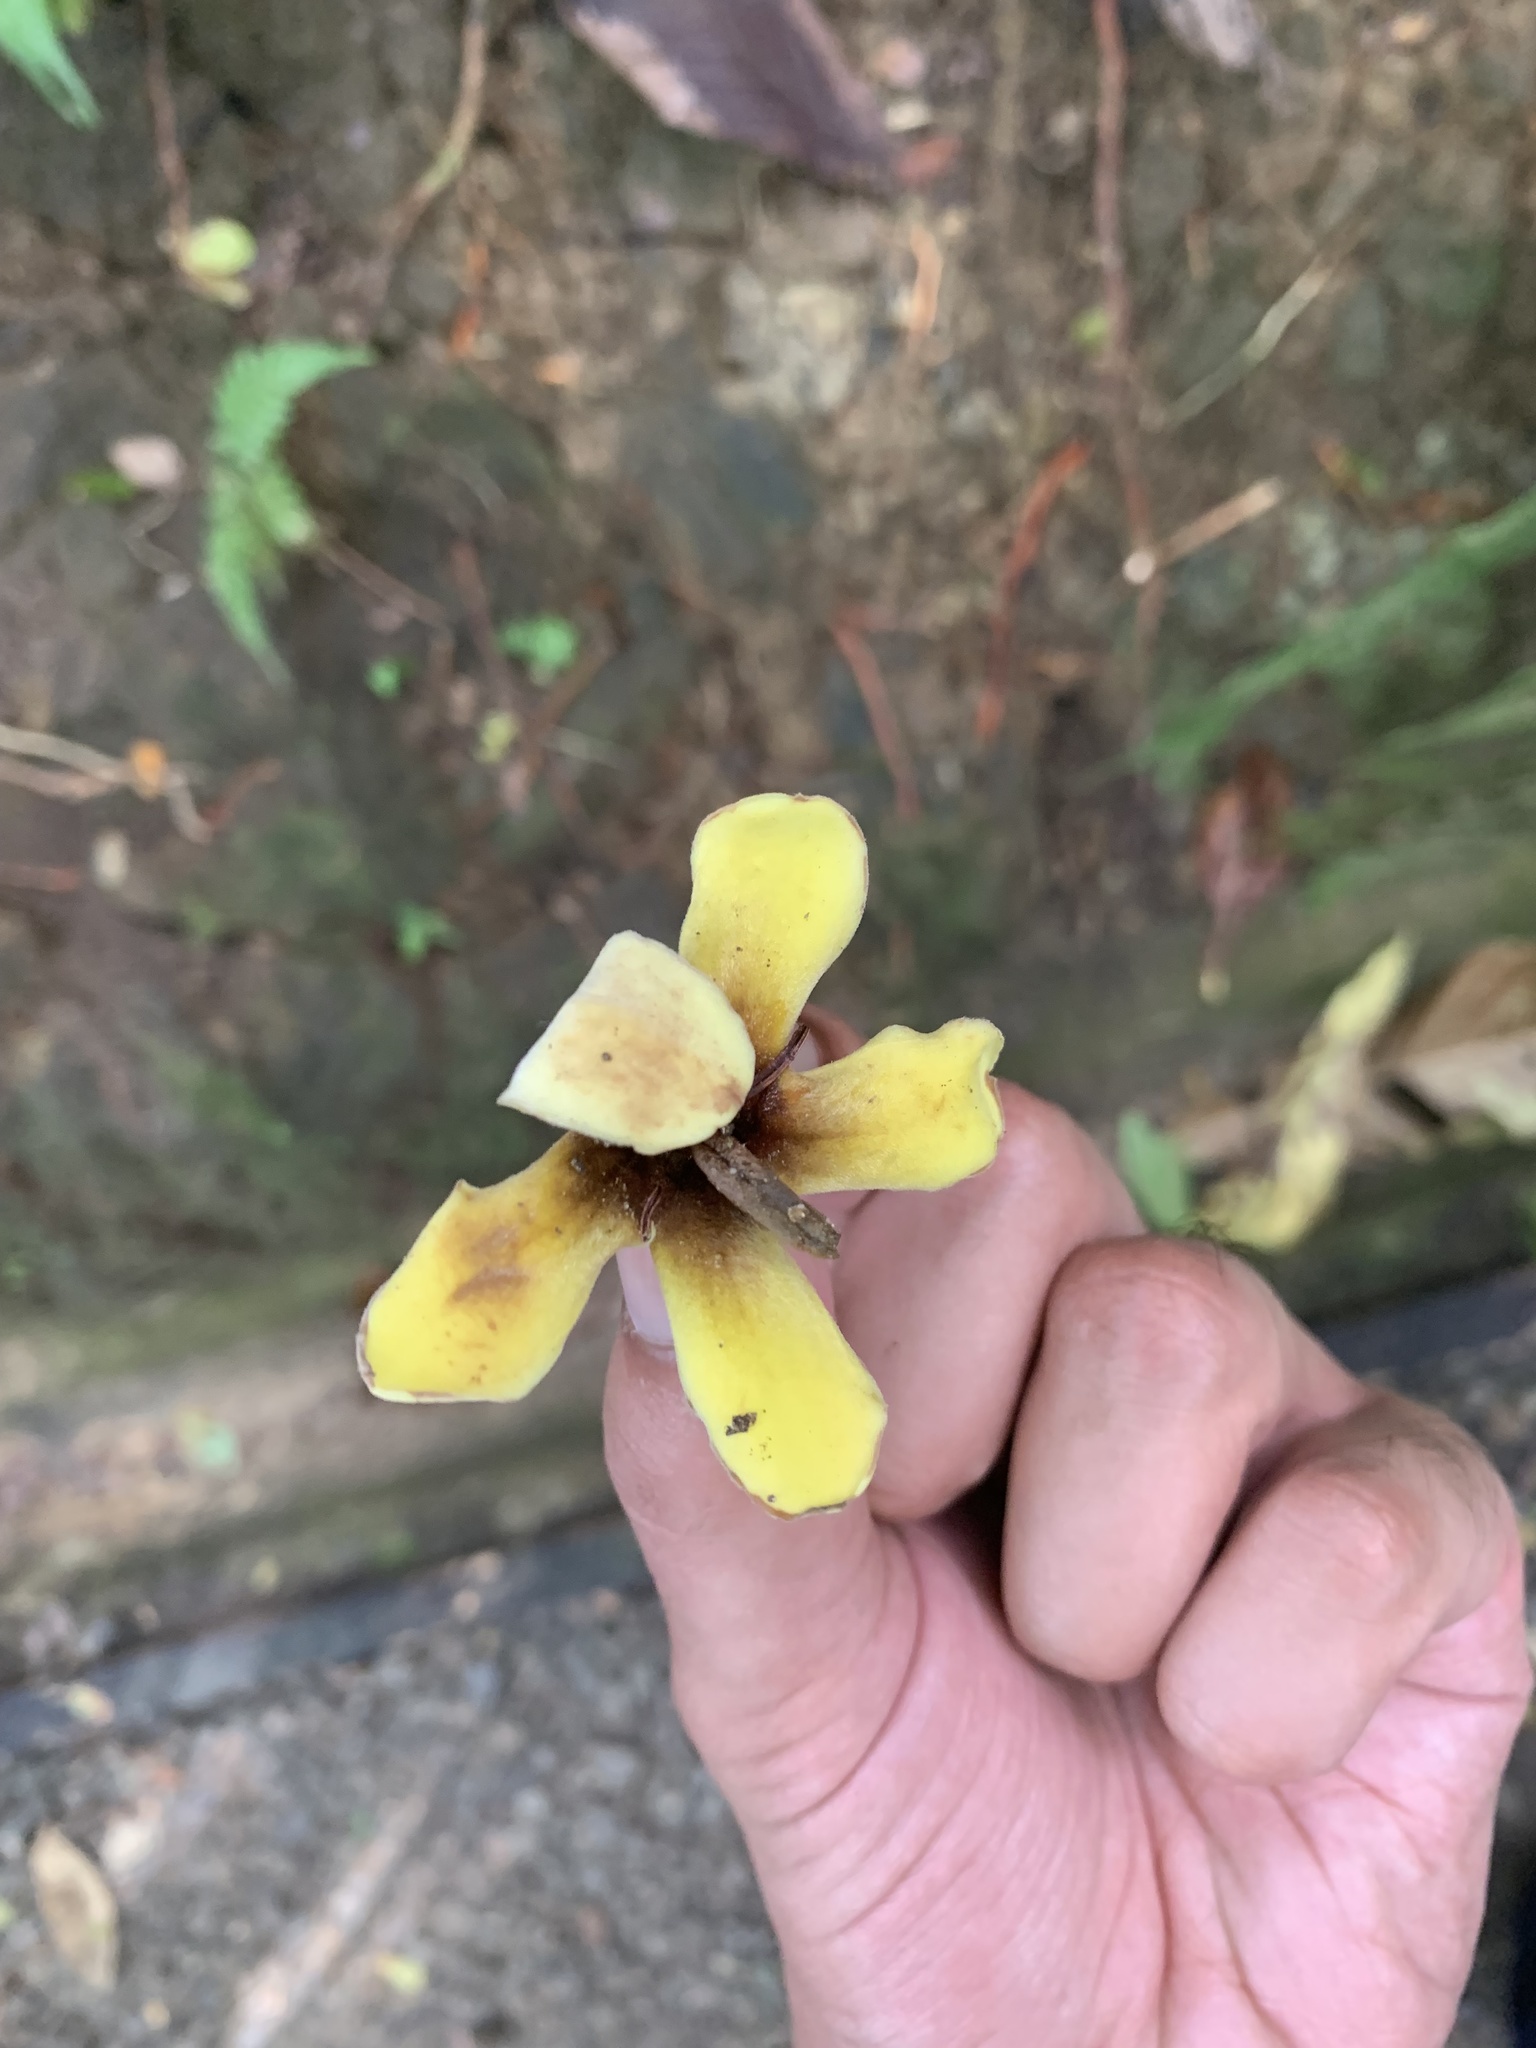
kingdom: Plantae
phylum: Tracheophyta
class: Magnoliopsida
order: Gentianales
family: Rubiaceae
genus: Genipa
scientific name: Genipa americana
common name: Genipap
